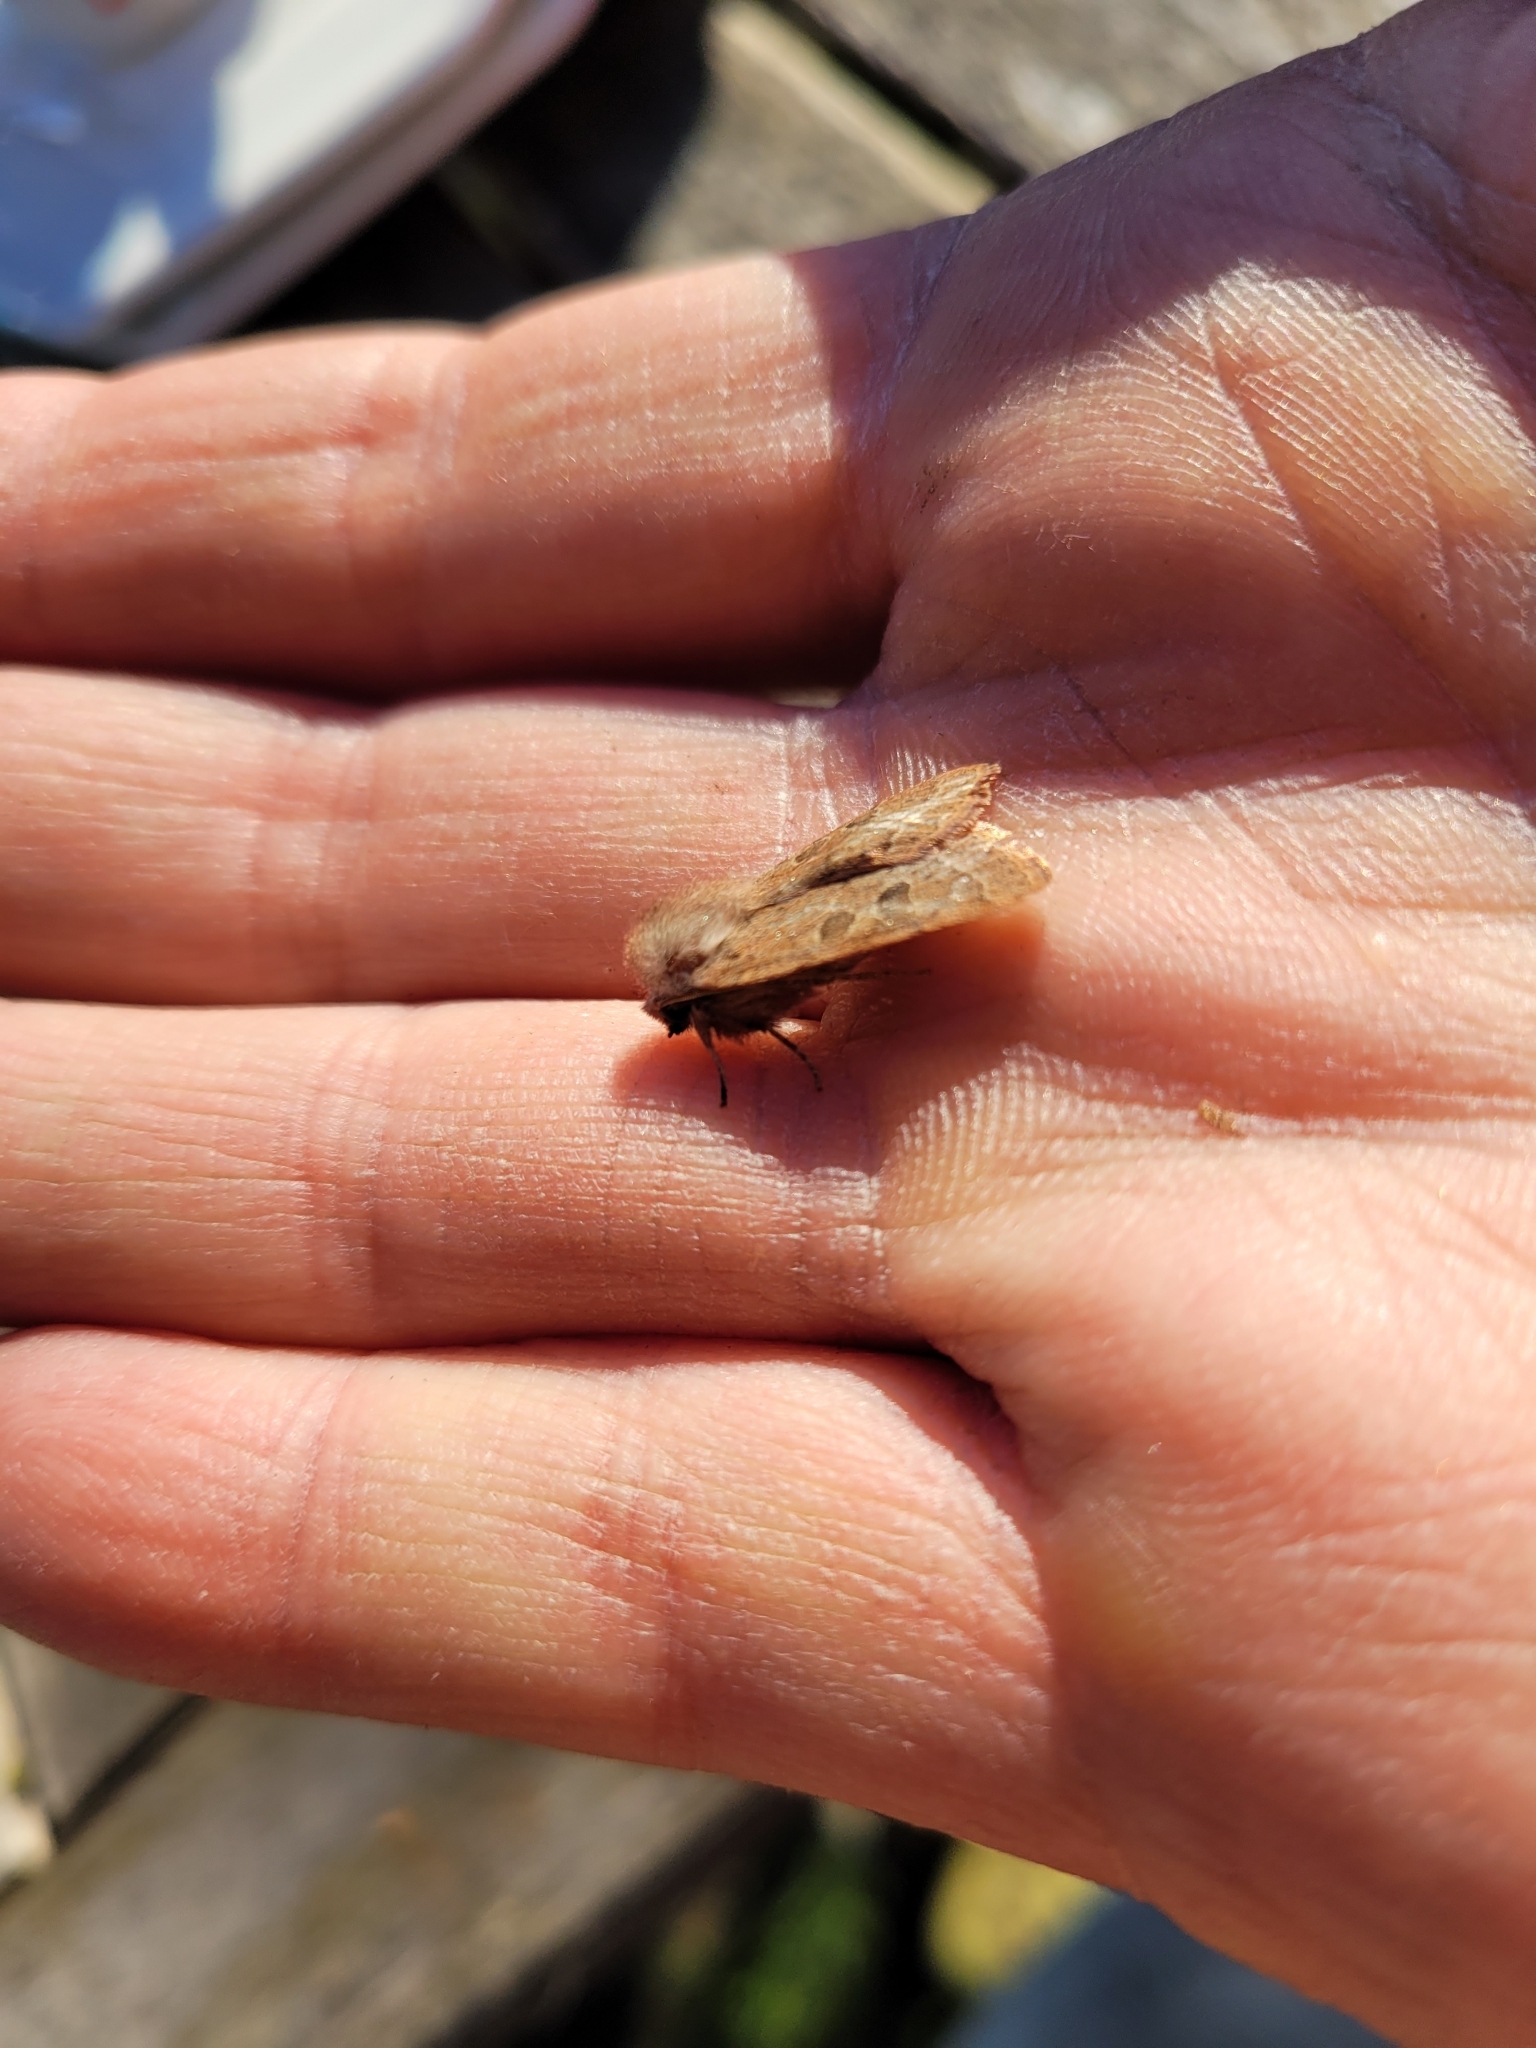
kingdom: Animalia
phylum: Arthropoda
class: Insecta
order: Lepidoptera
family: Noctuidae
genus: Orthosia
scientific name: Orthosia cerasi
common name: Common quaker
